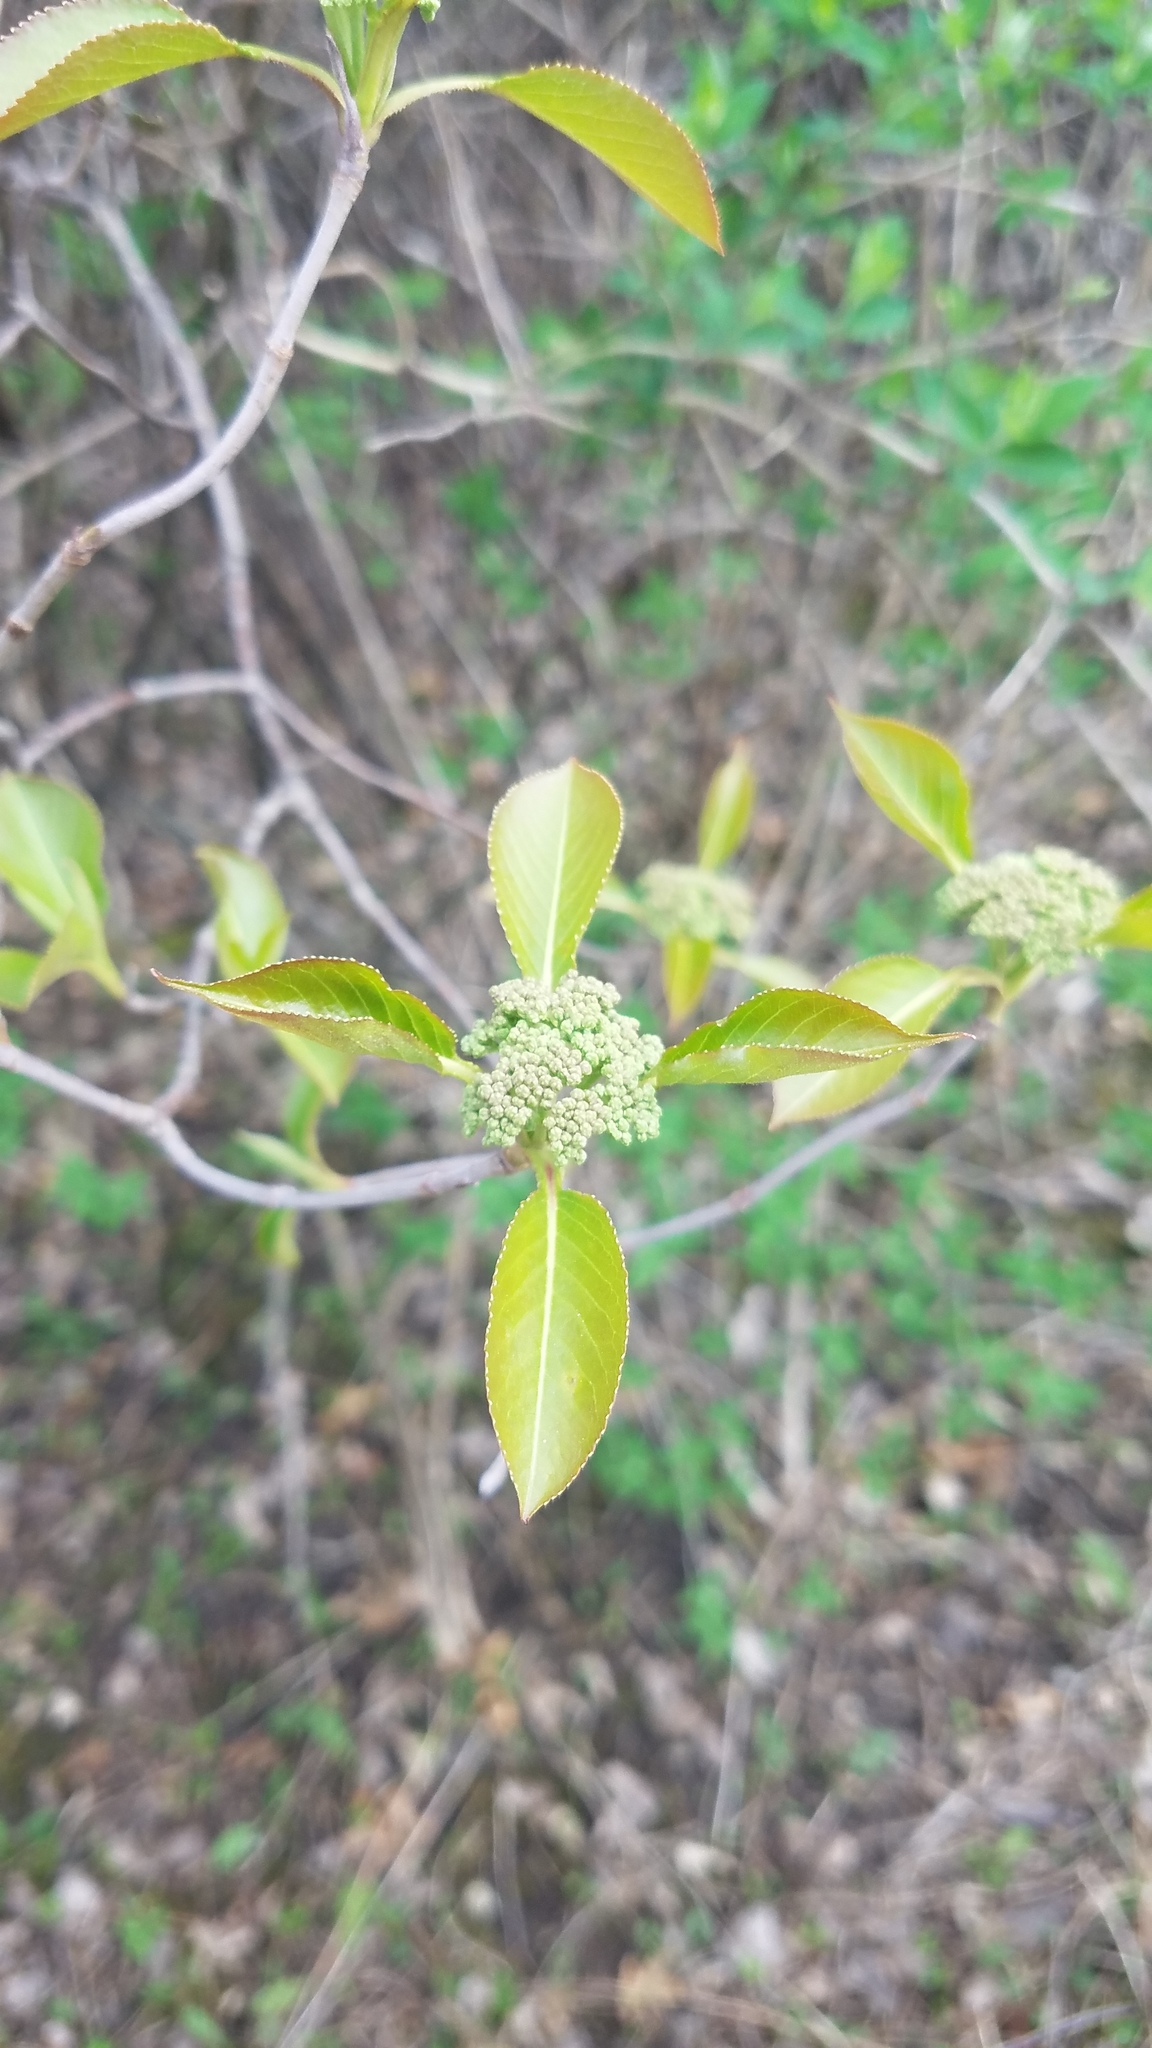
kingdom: Plantae
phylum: Tracheophyta
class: Magnoliopsida
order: Dipsacales
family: Viburnaceae
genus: Viburnum
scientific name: Viburnum lentago
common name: Black haw
